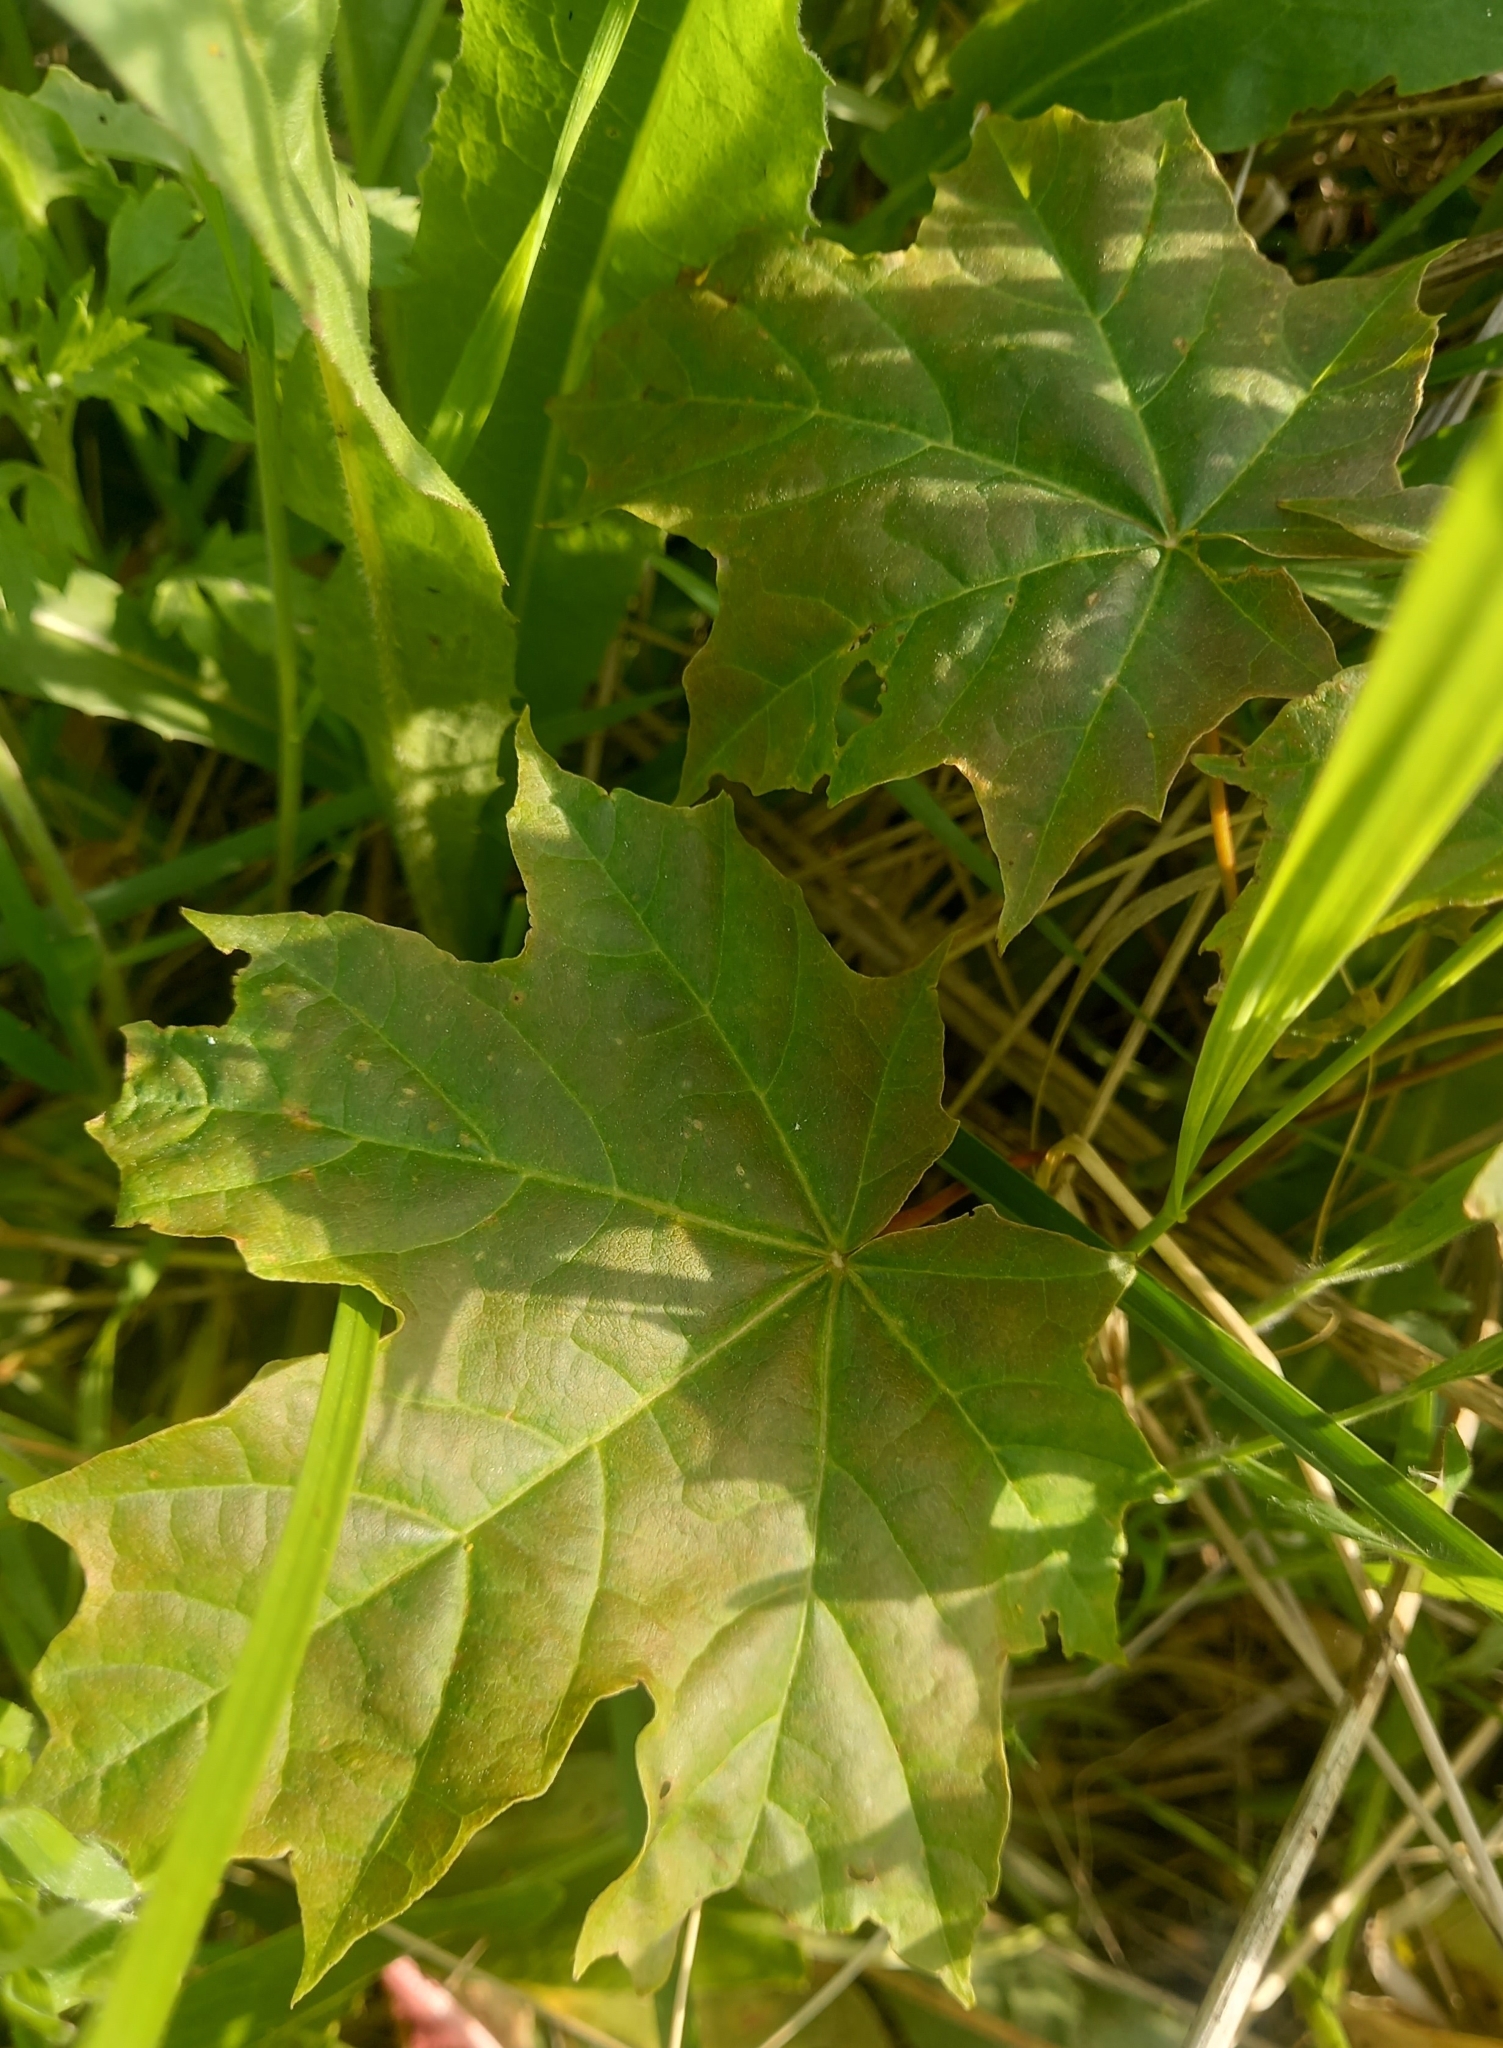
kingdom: Plantae
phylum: Tracheophyta
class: Magnoliopsida
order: Sapindales
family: Sapindaceae
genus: Acer
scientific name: Acer platanoides
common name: Norway maple
